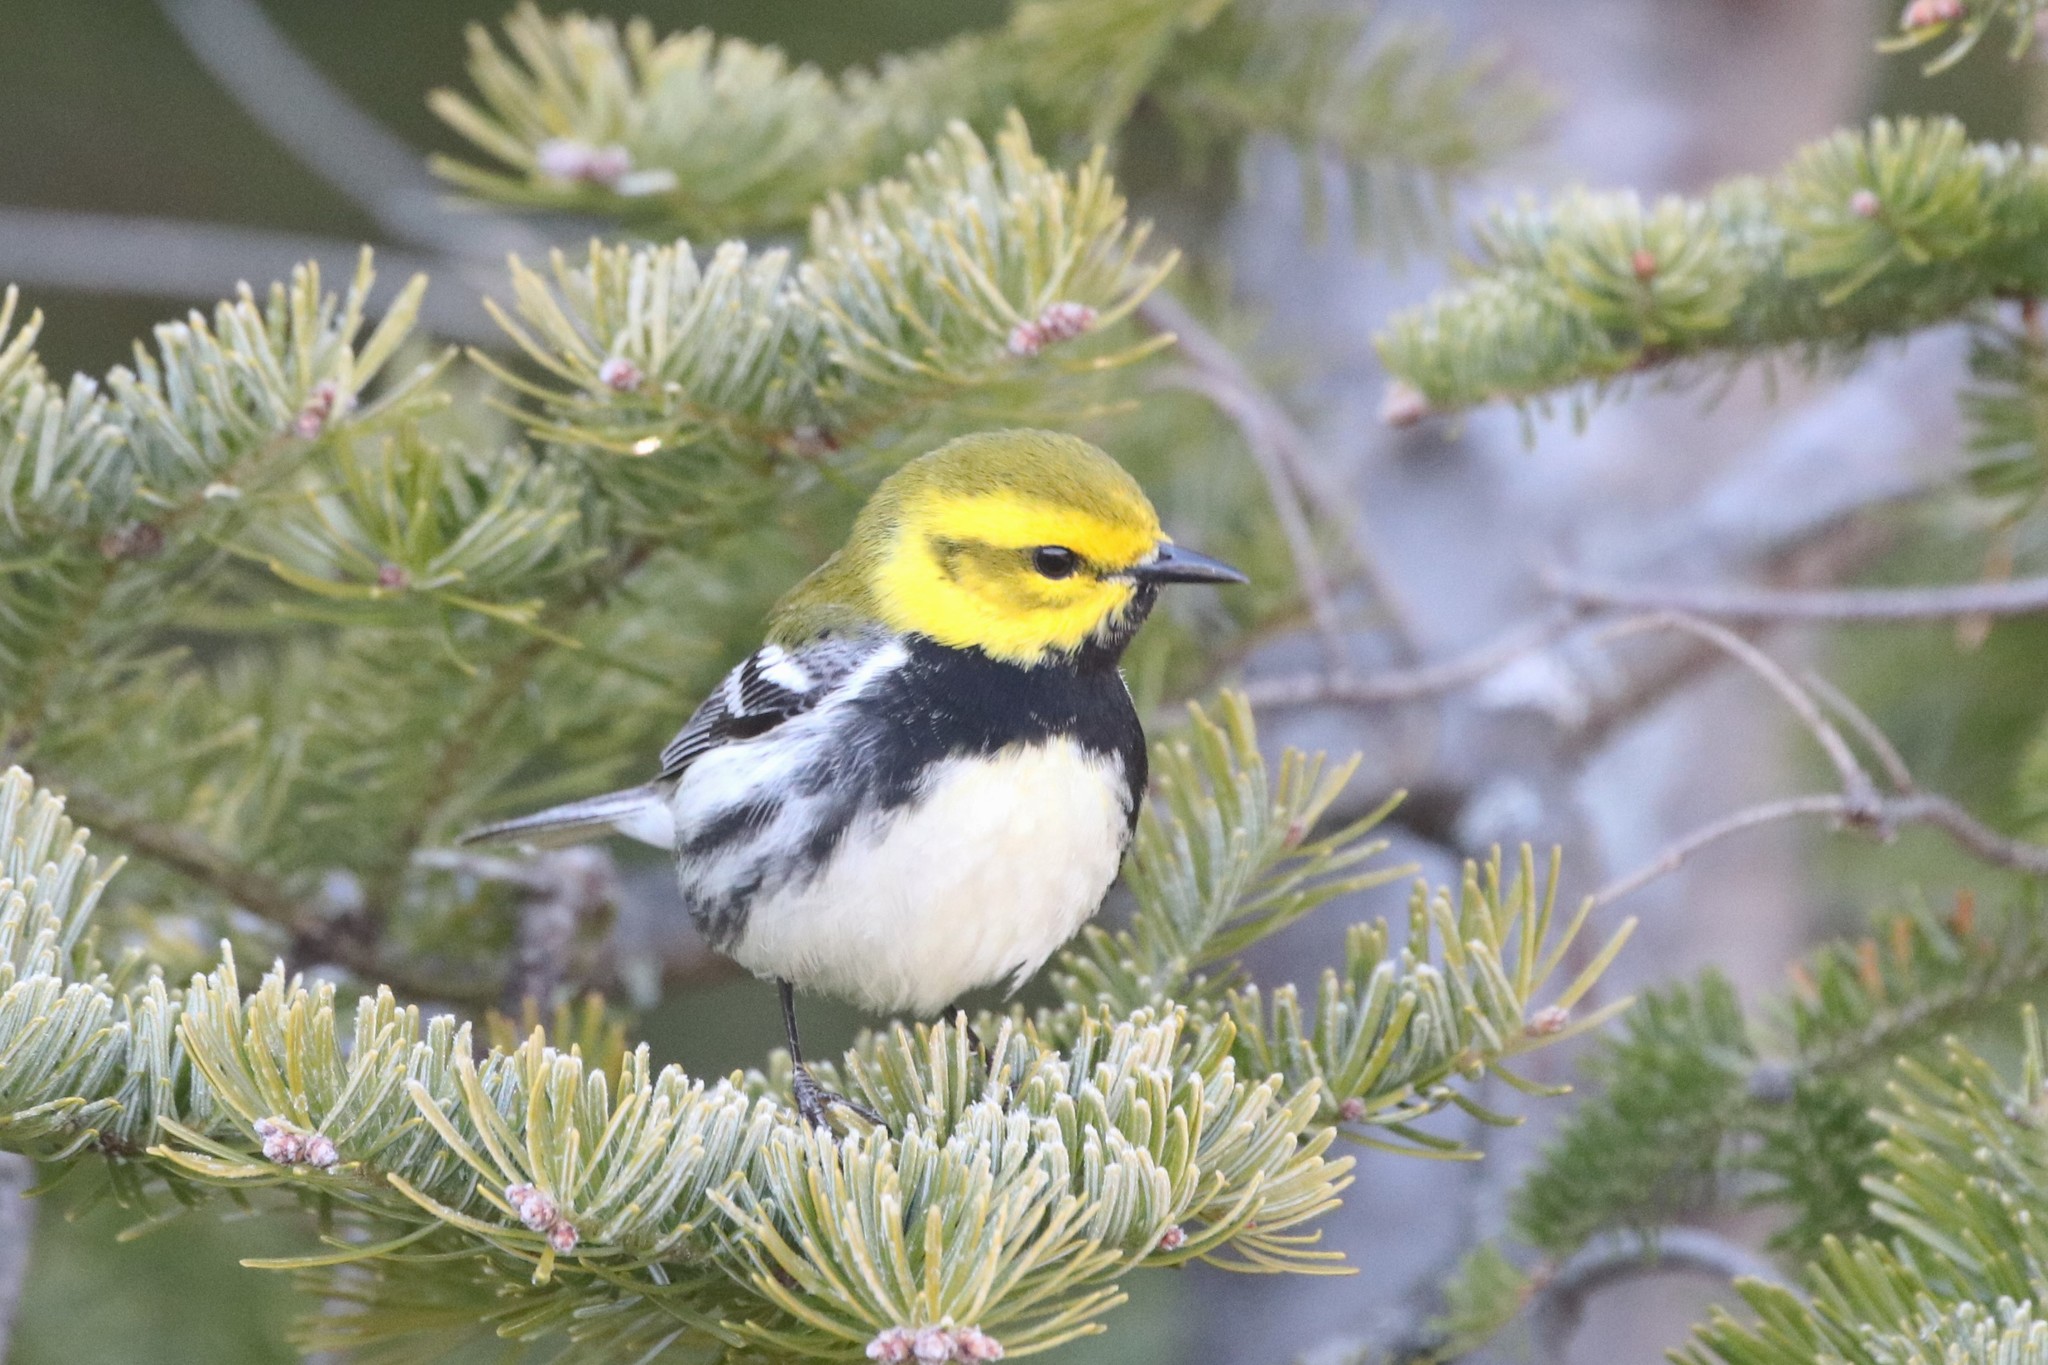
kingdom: Animalia
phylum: Chordata
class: Aves
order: Passeriformes
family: Parulidae
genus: Setophaga
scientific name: Setophaga virens
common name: Black-throated green warbler
